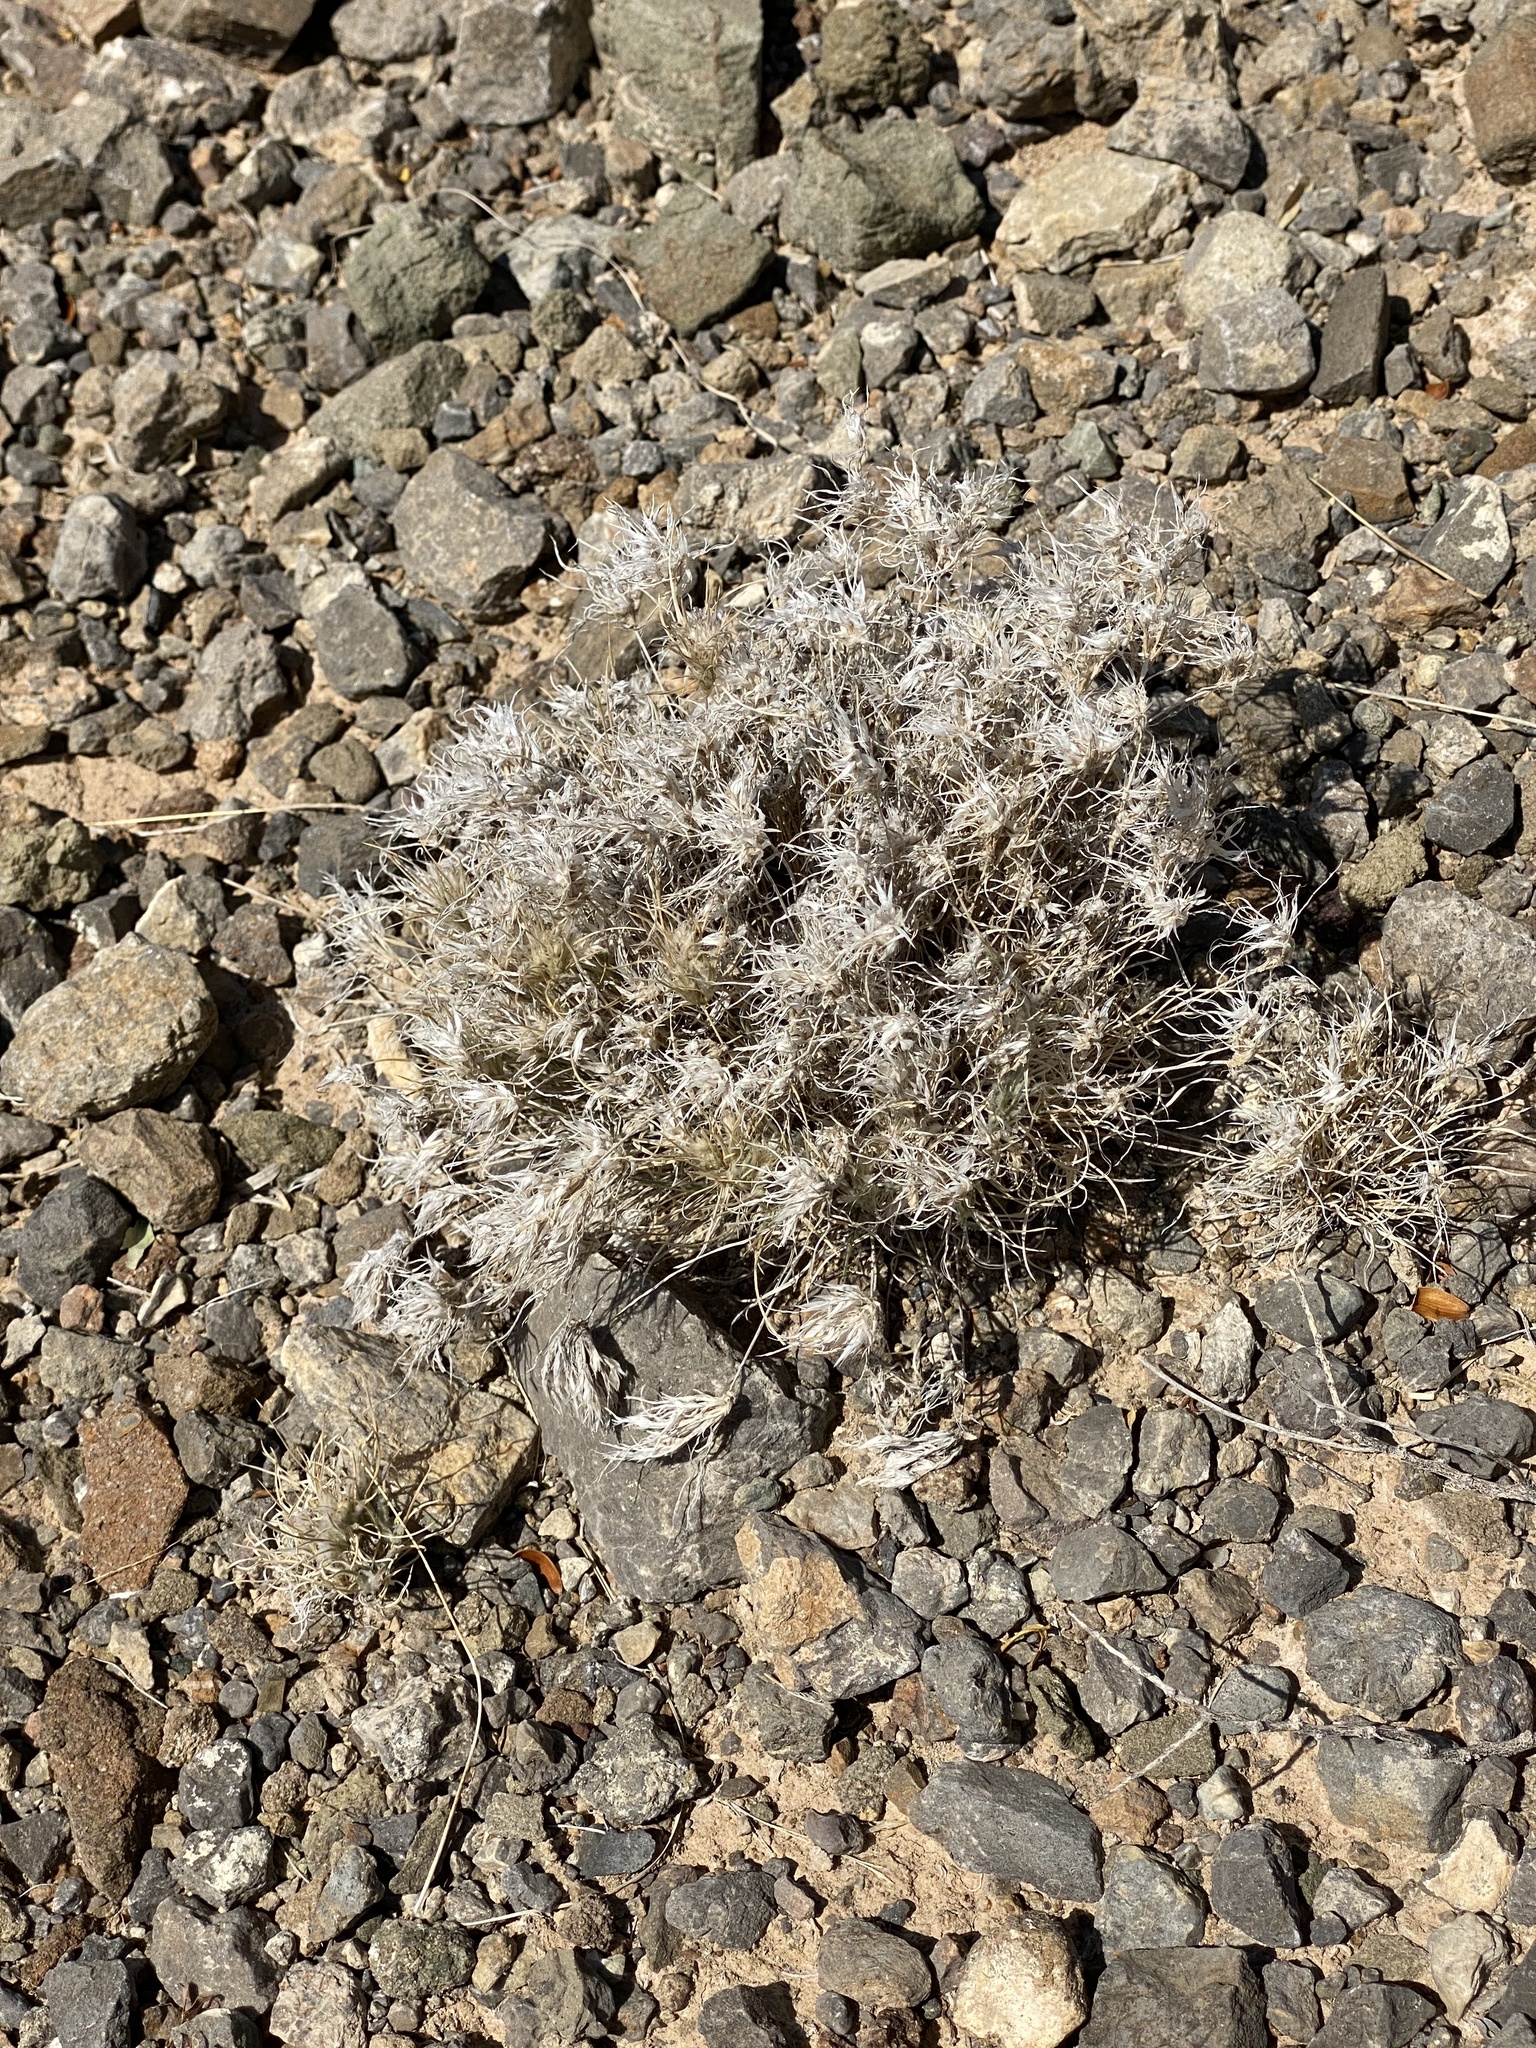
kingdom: Plantae
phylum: Tracheophyta
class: Liliopsida
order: Poales
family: Poaceae
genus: Dasyochloa
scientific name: Dasyochloa pulchella
